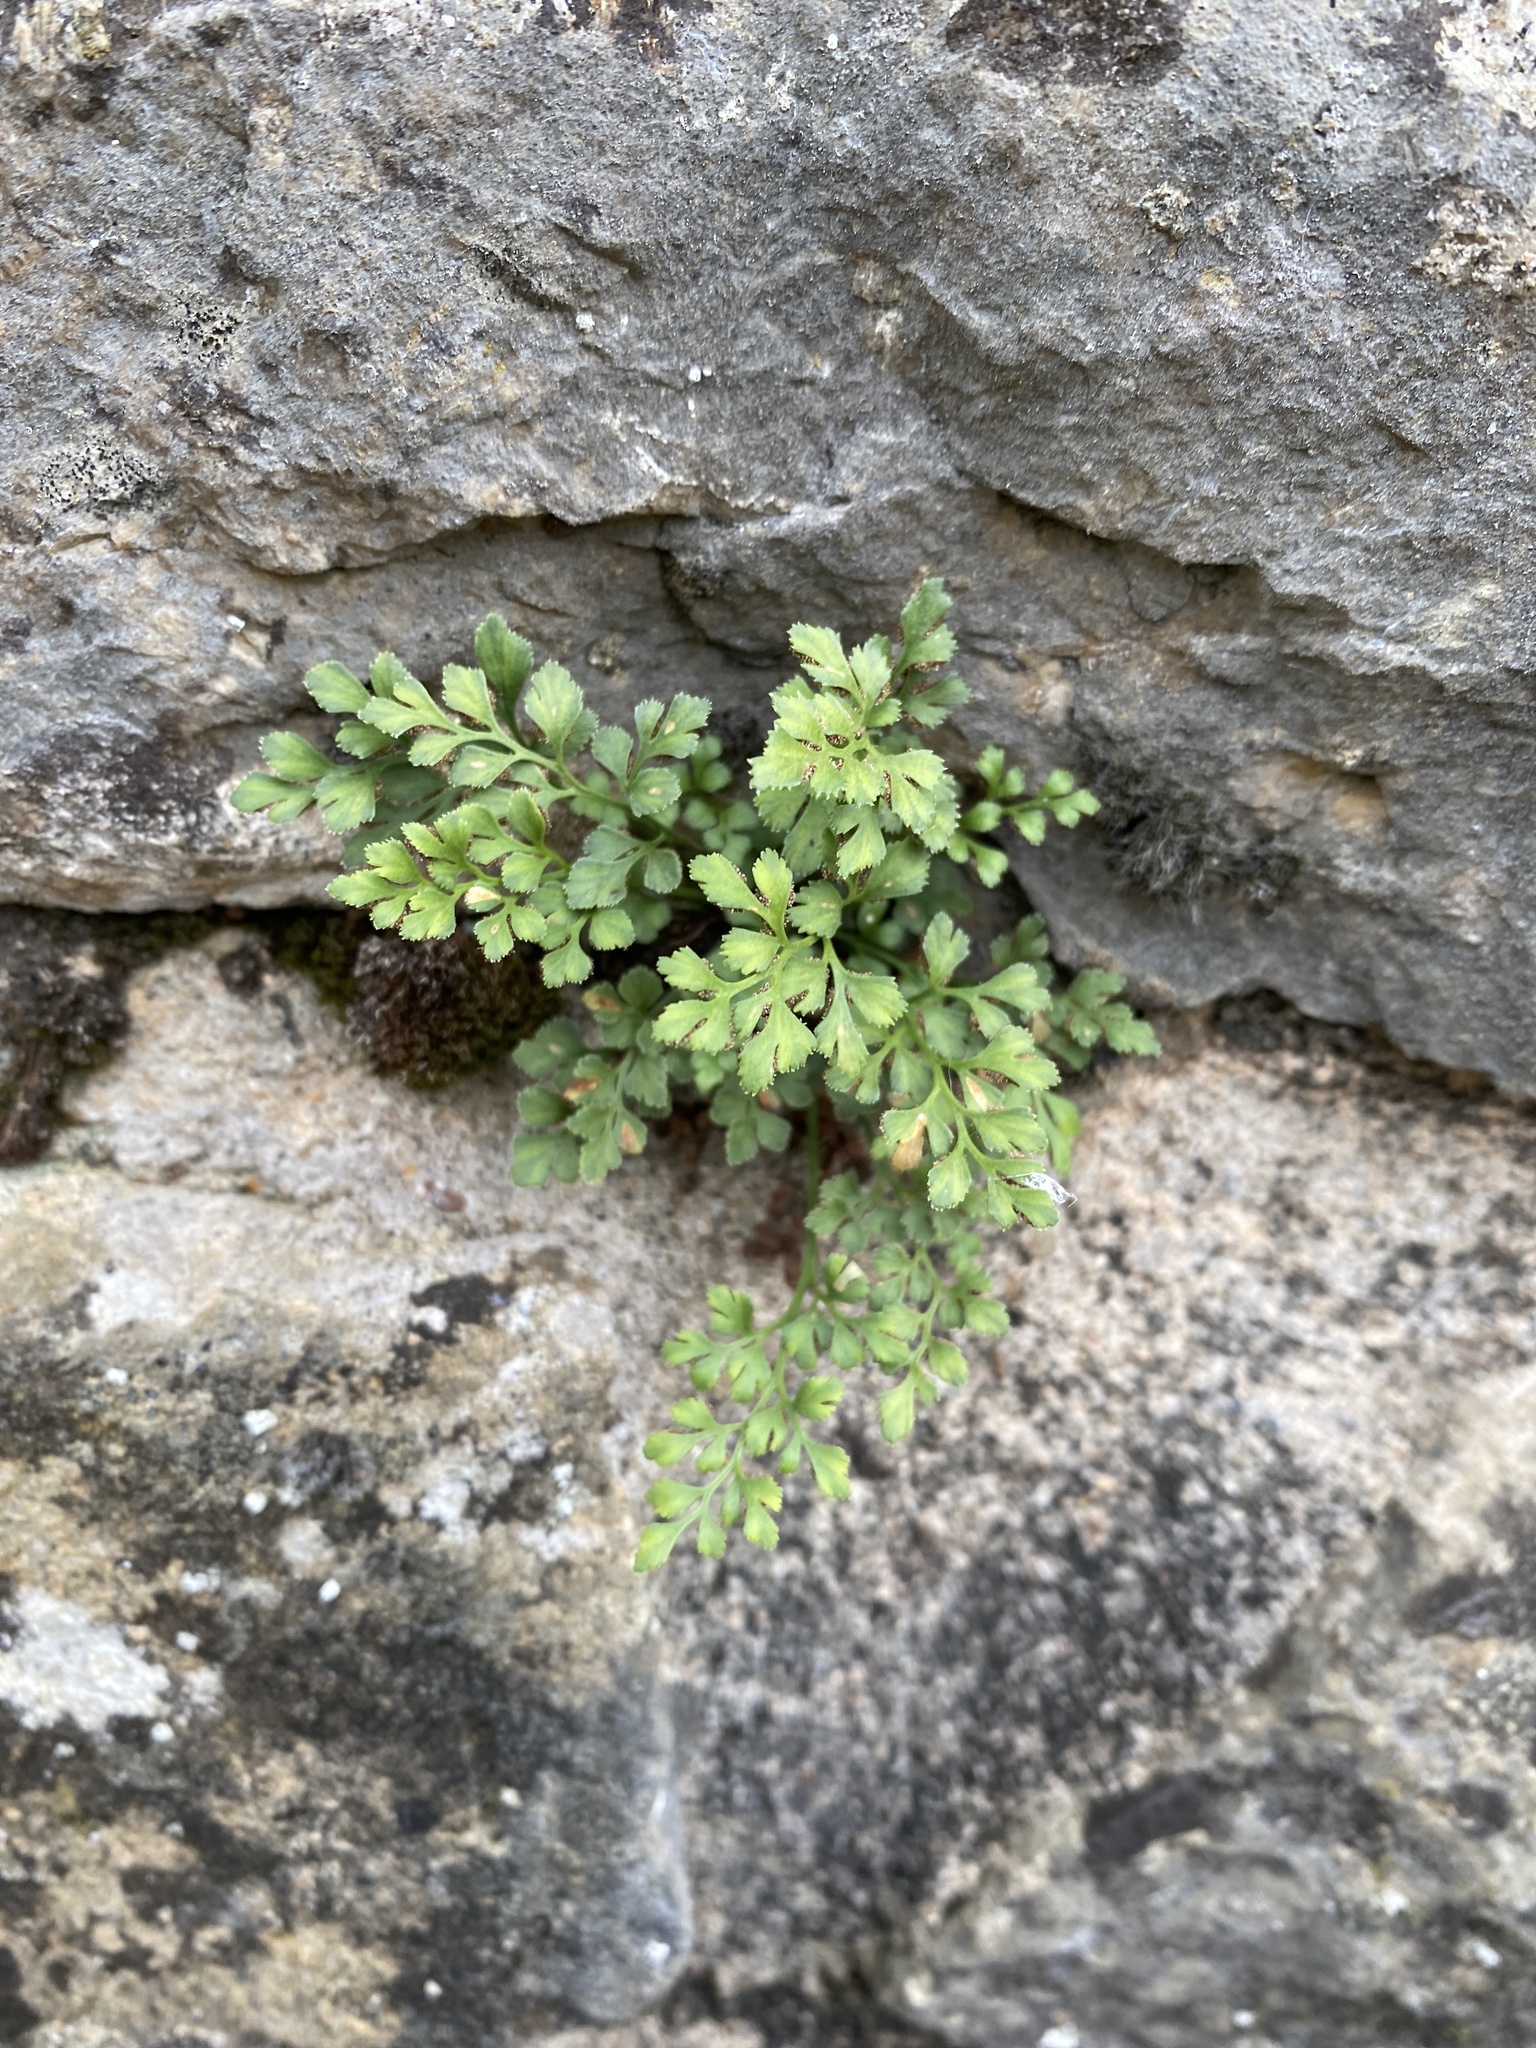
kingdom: Plantae
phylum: Tracheophyta
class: Polypodiopsida
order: Polypodiales
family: Aspleniaceae
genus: Asplenium
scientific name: Asplenium ruta-muraria
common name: Wall-rue
